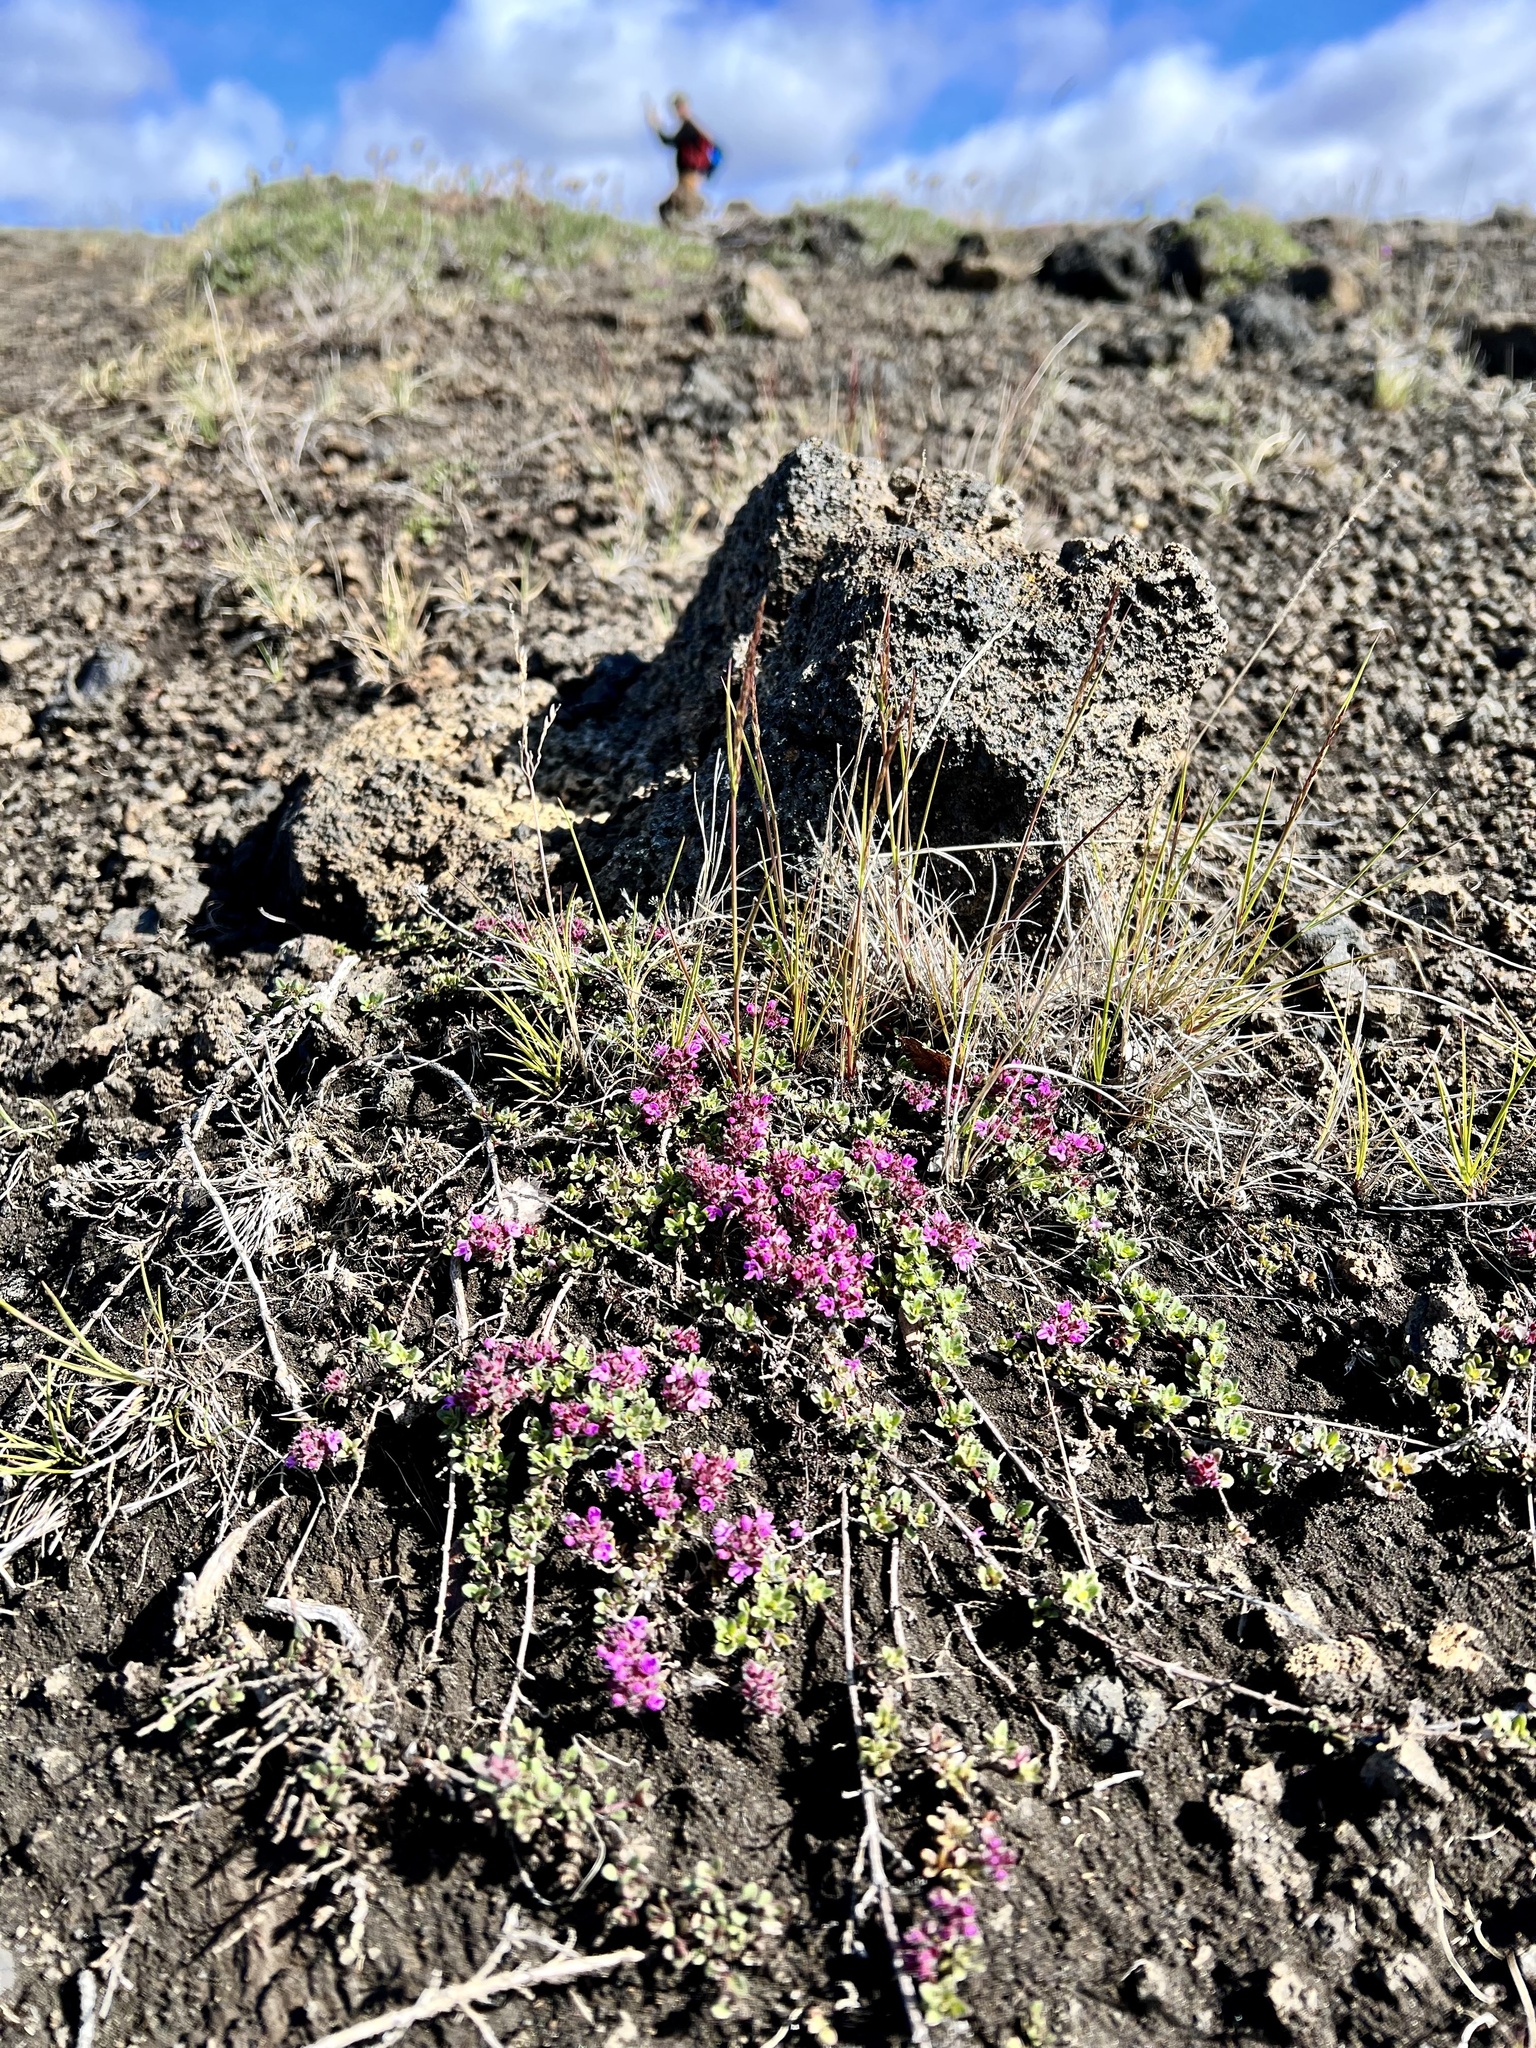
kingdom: Plantae
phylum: Tracheophyta
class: Magnoliopsida
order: Lamiales
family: Lamiaceae
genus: Thymus
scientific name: Thymus praecox
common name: Wild thyme
